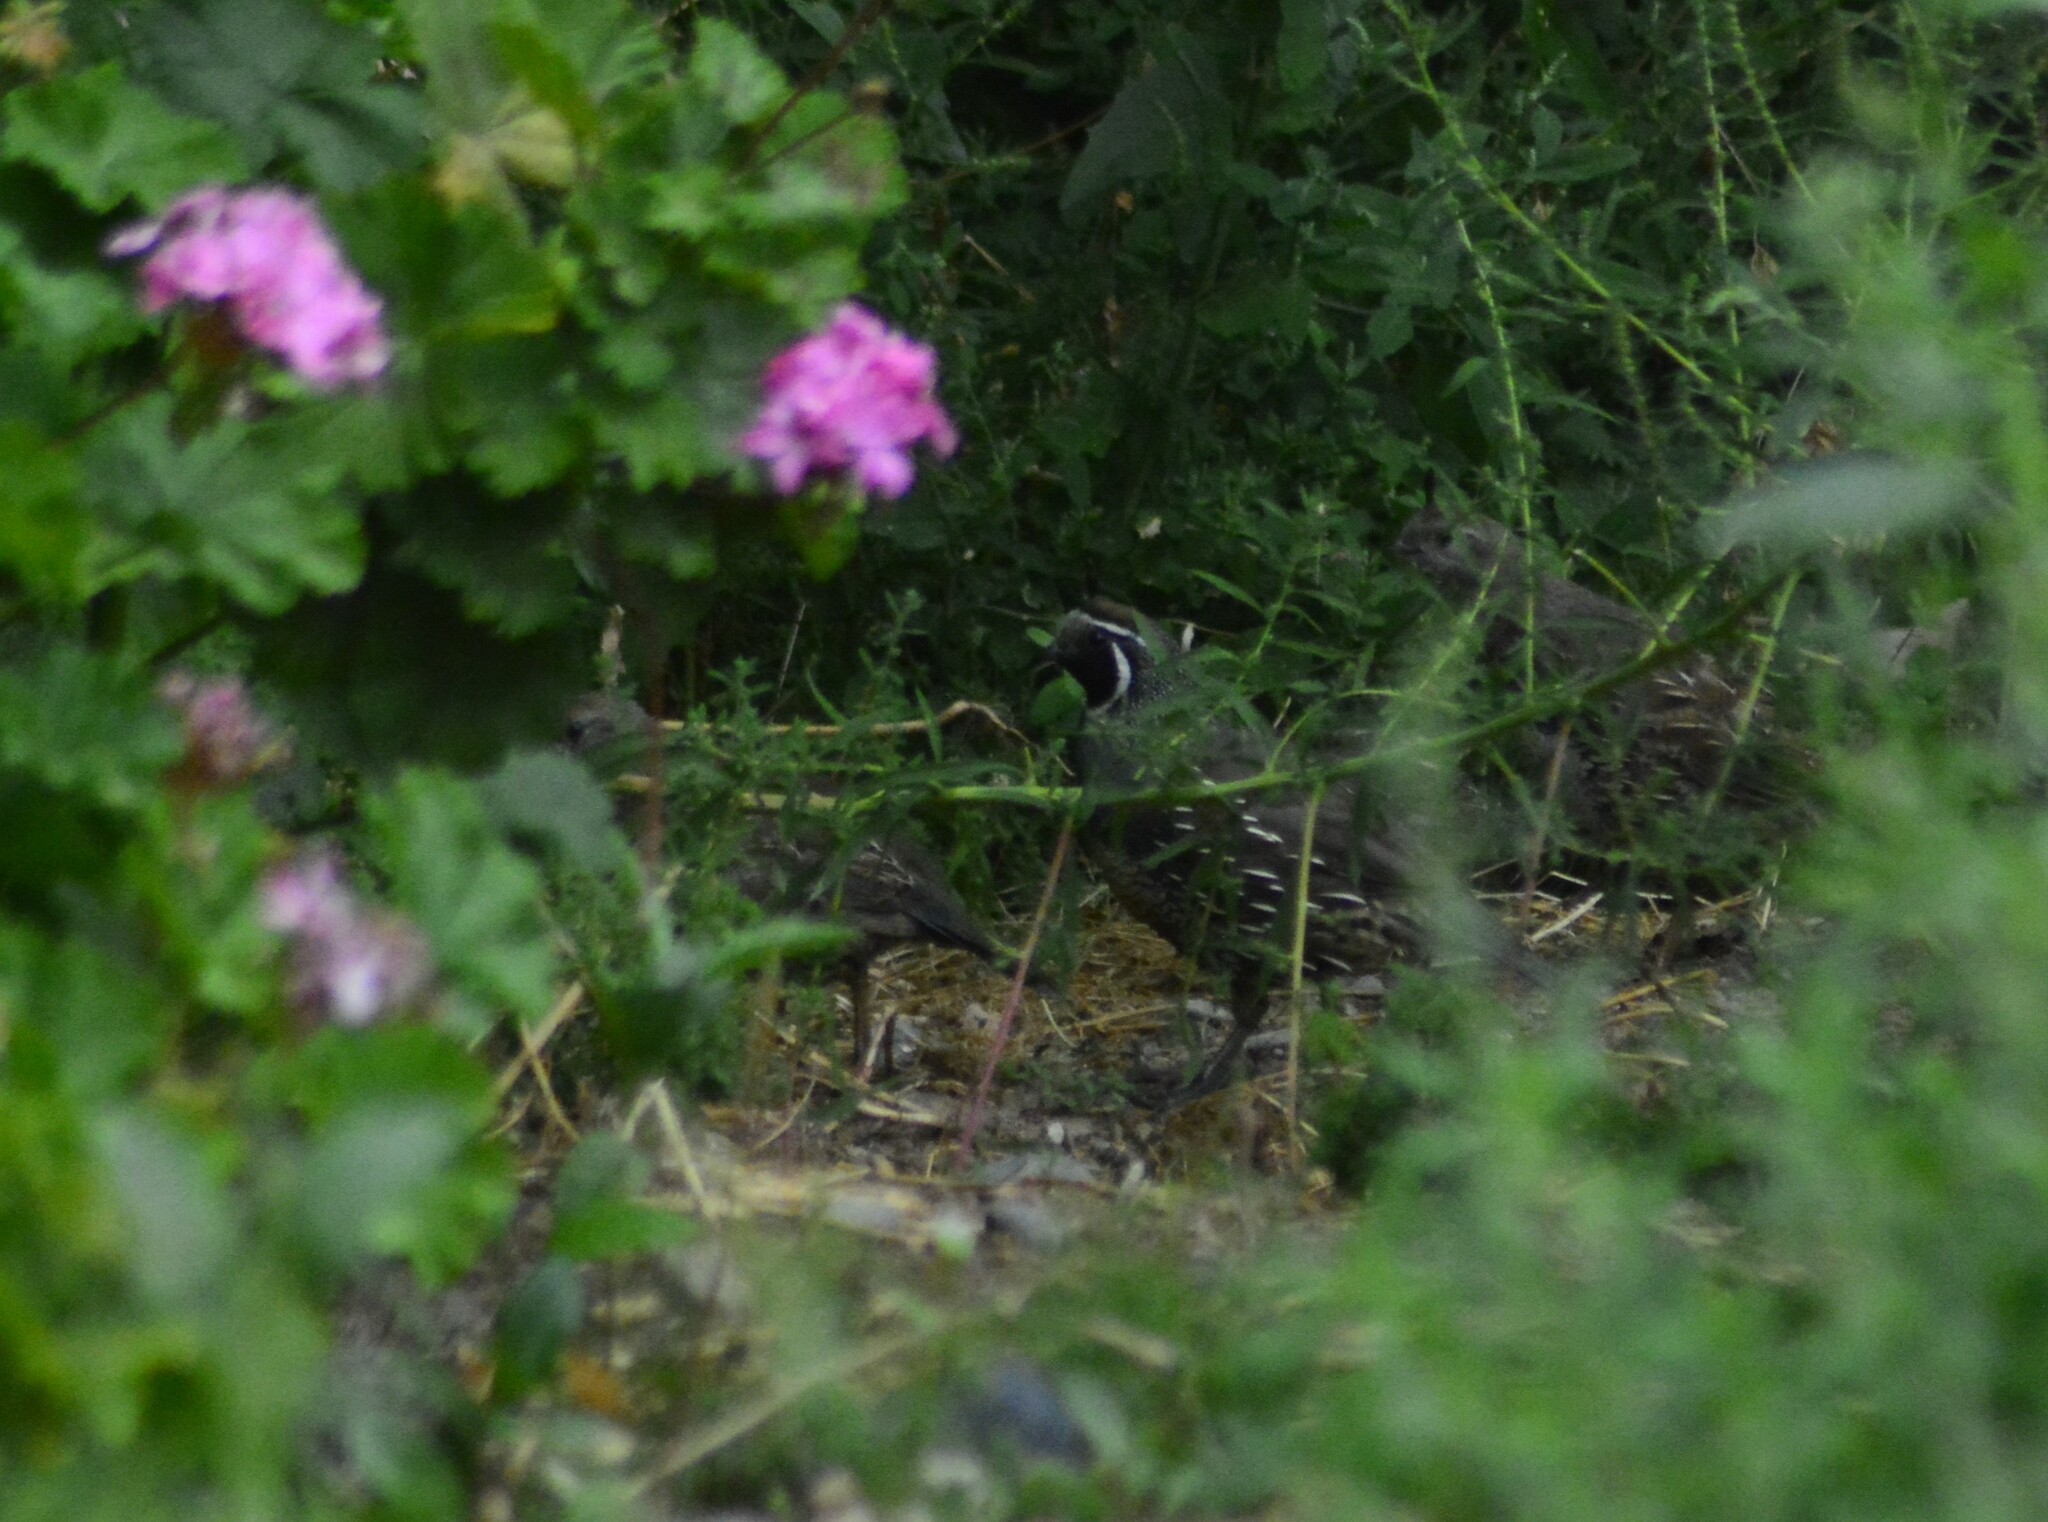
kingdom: Animalia
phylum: Chordata
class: Aves
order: Galliformes
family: Odontophoridae
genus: Callipepla
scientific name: Callipepla californica
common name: California quail
